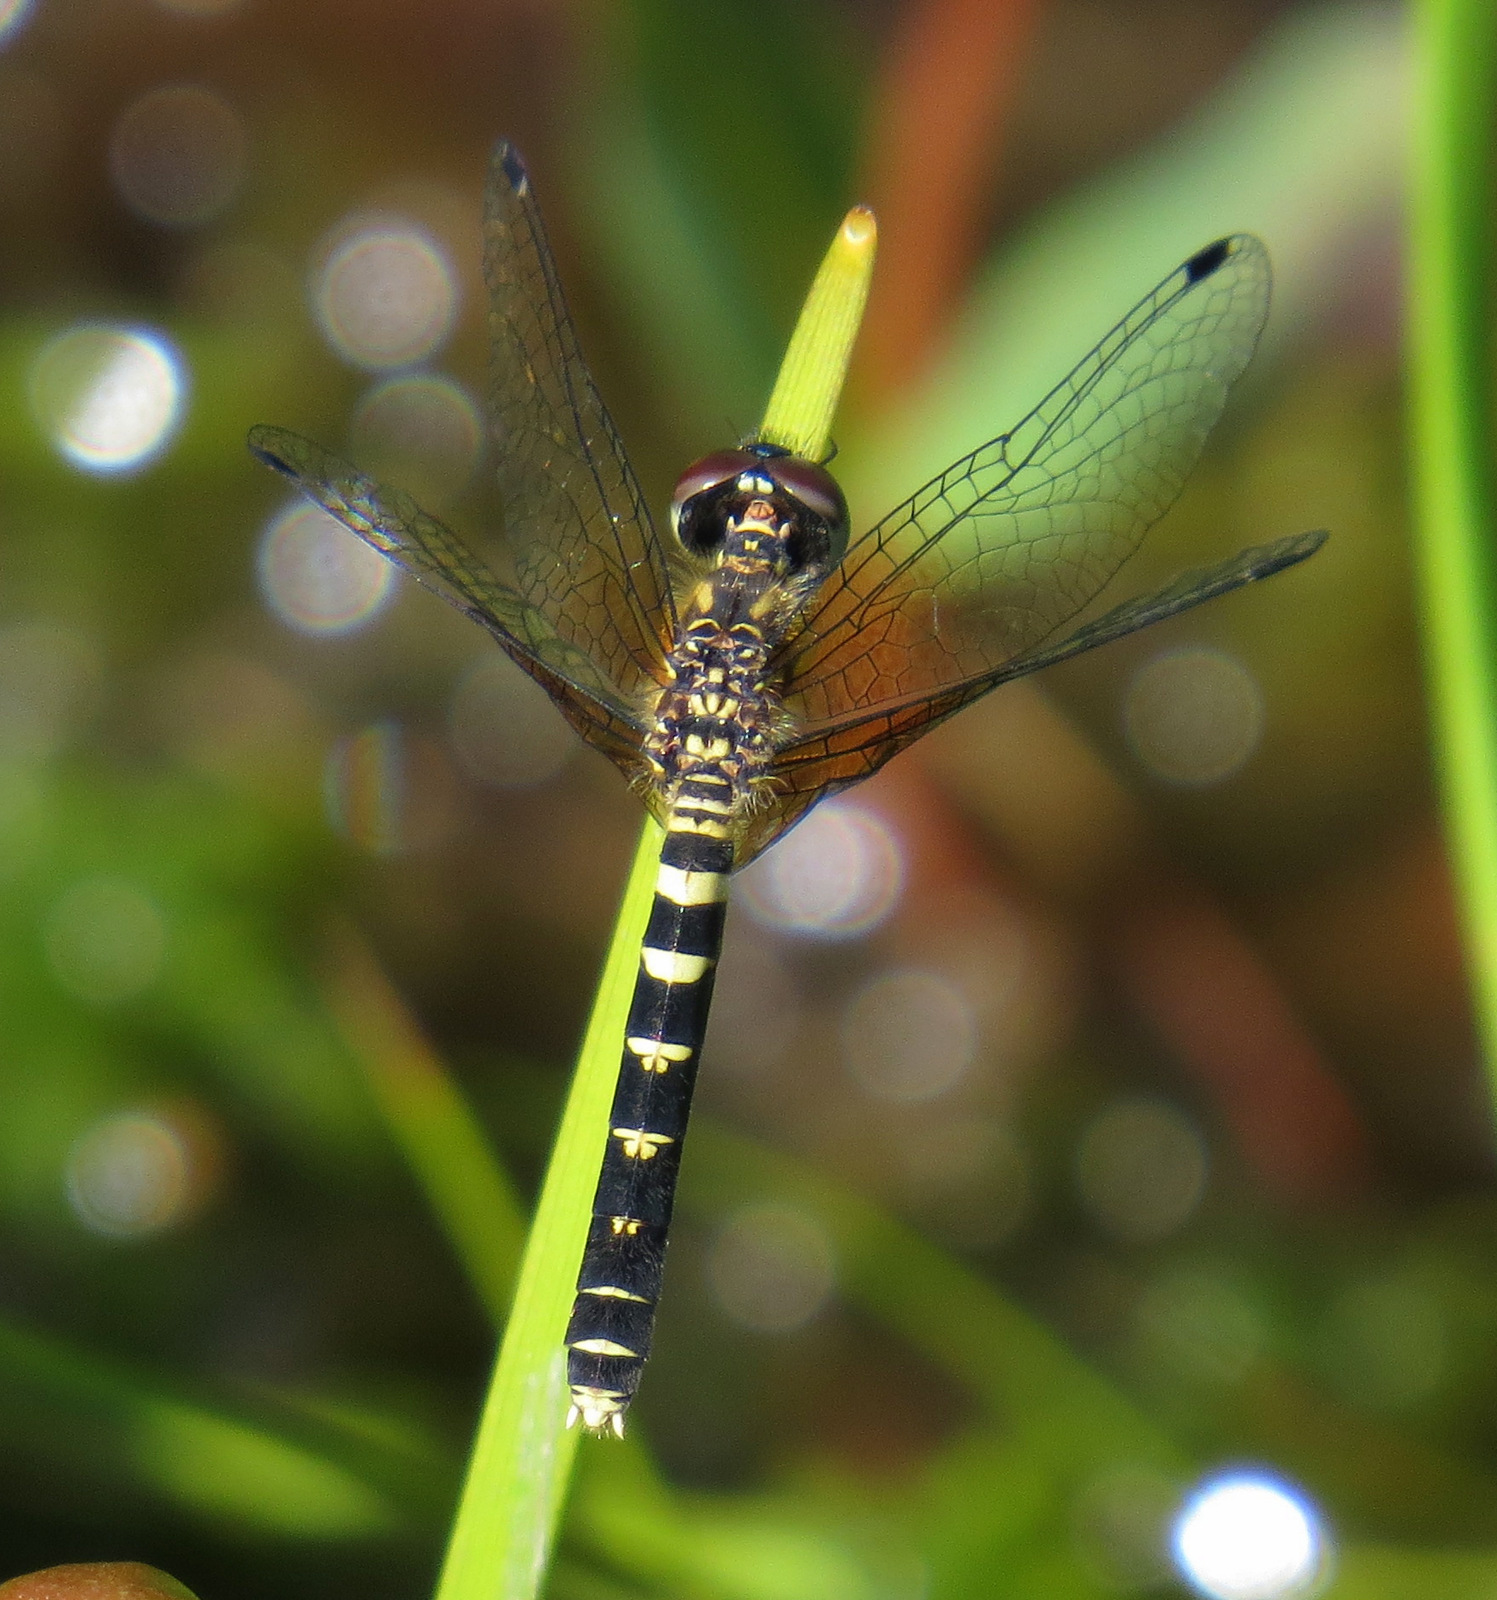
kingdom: Animalia
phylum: Arthropoda
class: Insecta
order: Odonata
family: Libellulidae
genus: Nannothemis
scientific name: Nannothemis bella
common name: Elfin skimmer
